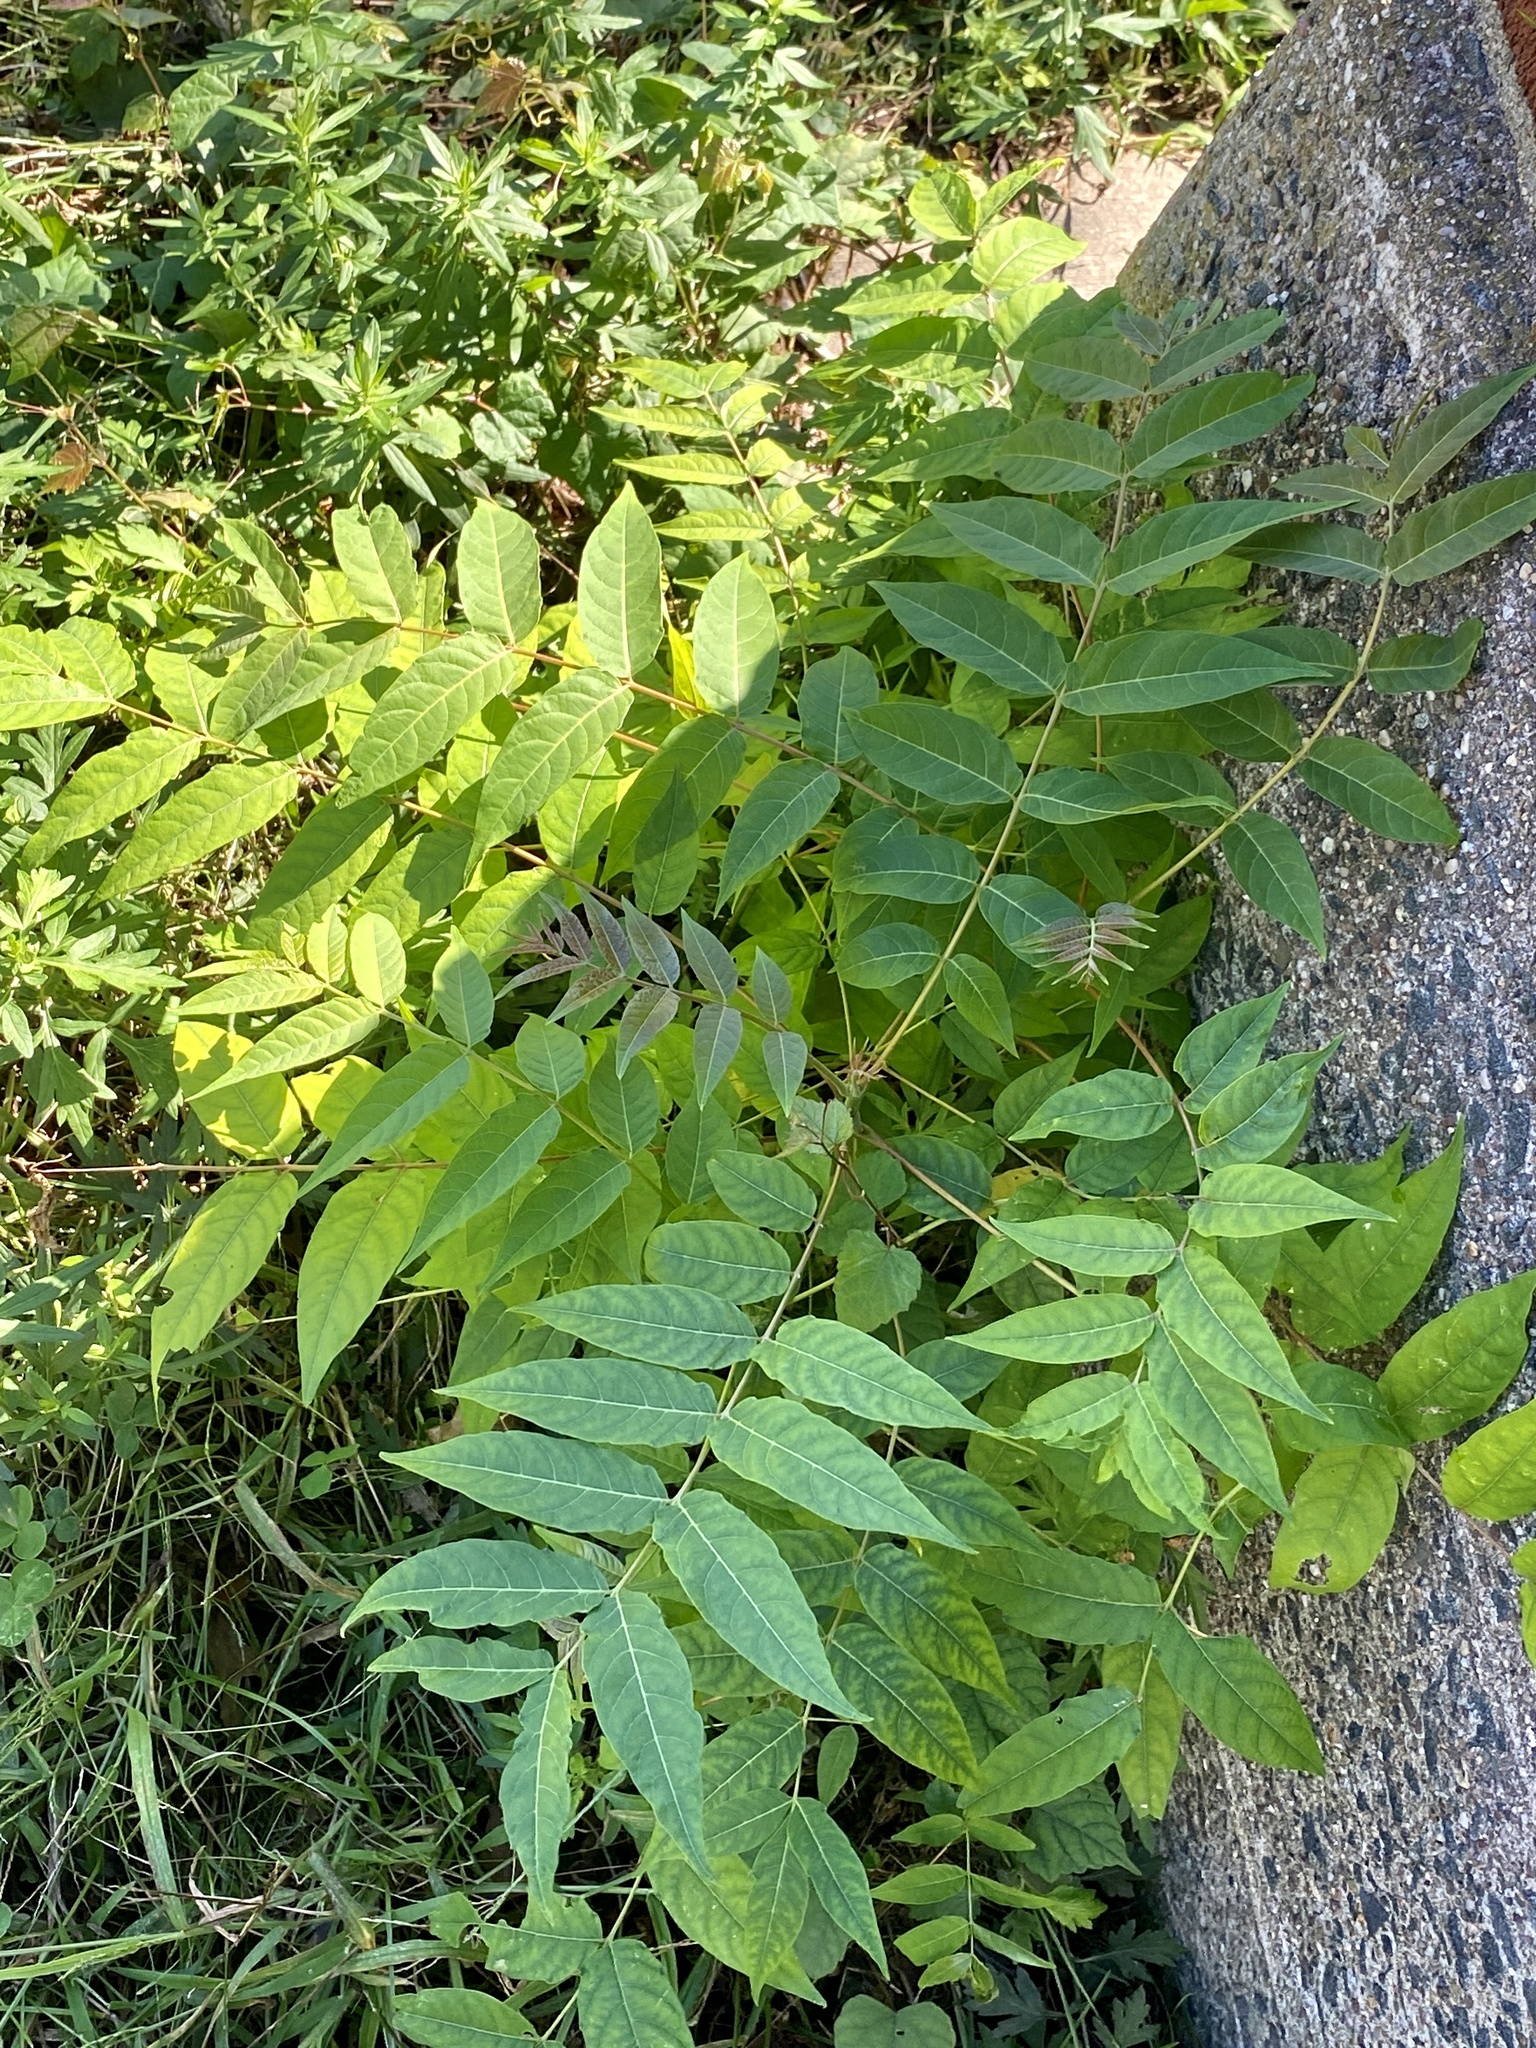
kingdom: Plantae
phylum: Tracheophyta
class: Magnoliopsida
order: Sapindales
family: Simaroubaceae
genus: Ailanthus
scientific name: Ailanthus altissima
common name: Tree-of-heaven
